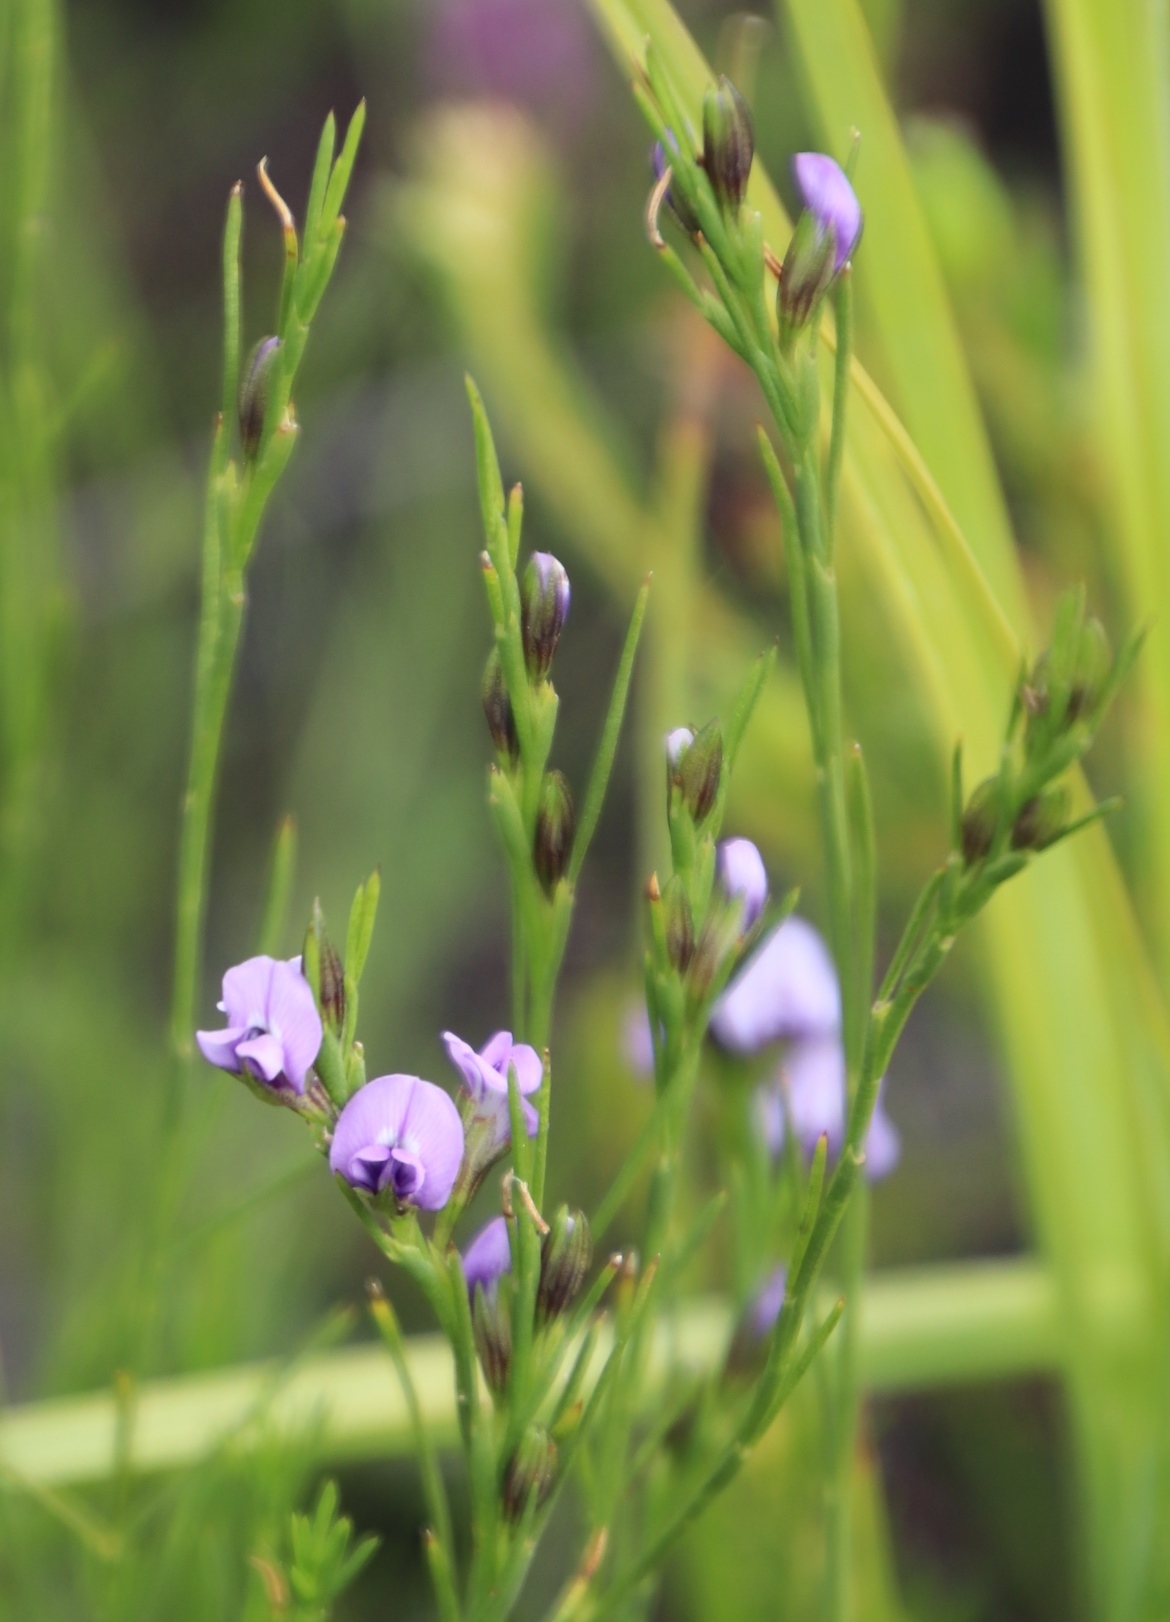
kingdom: Plantae
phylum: Tracheophyta
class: Magnoliopsida
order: Fabales
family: Fabaceae
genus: Psoralea
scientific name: Psoralea restioides
